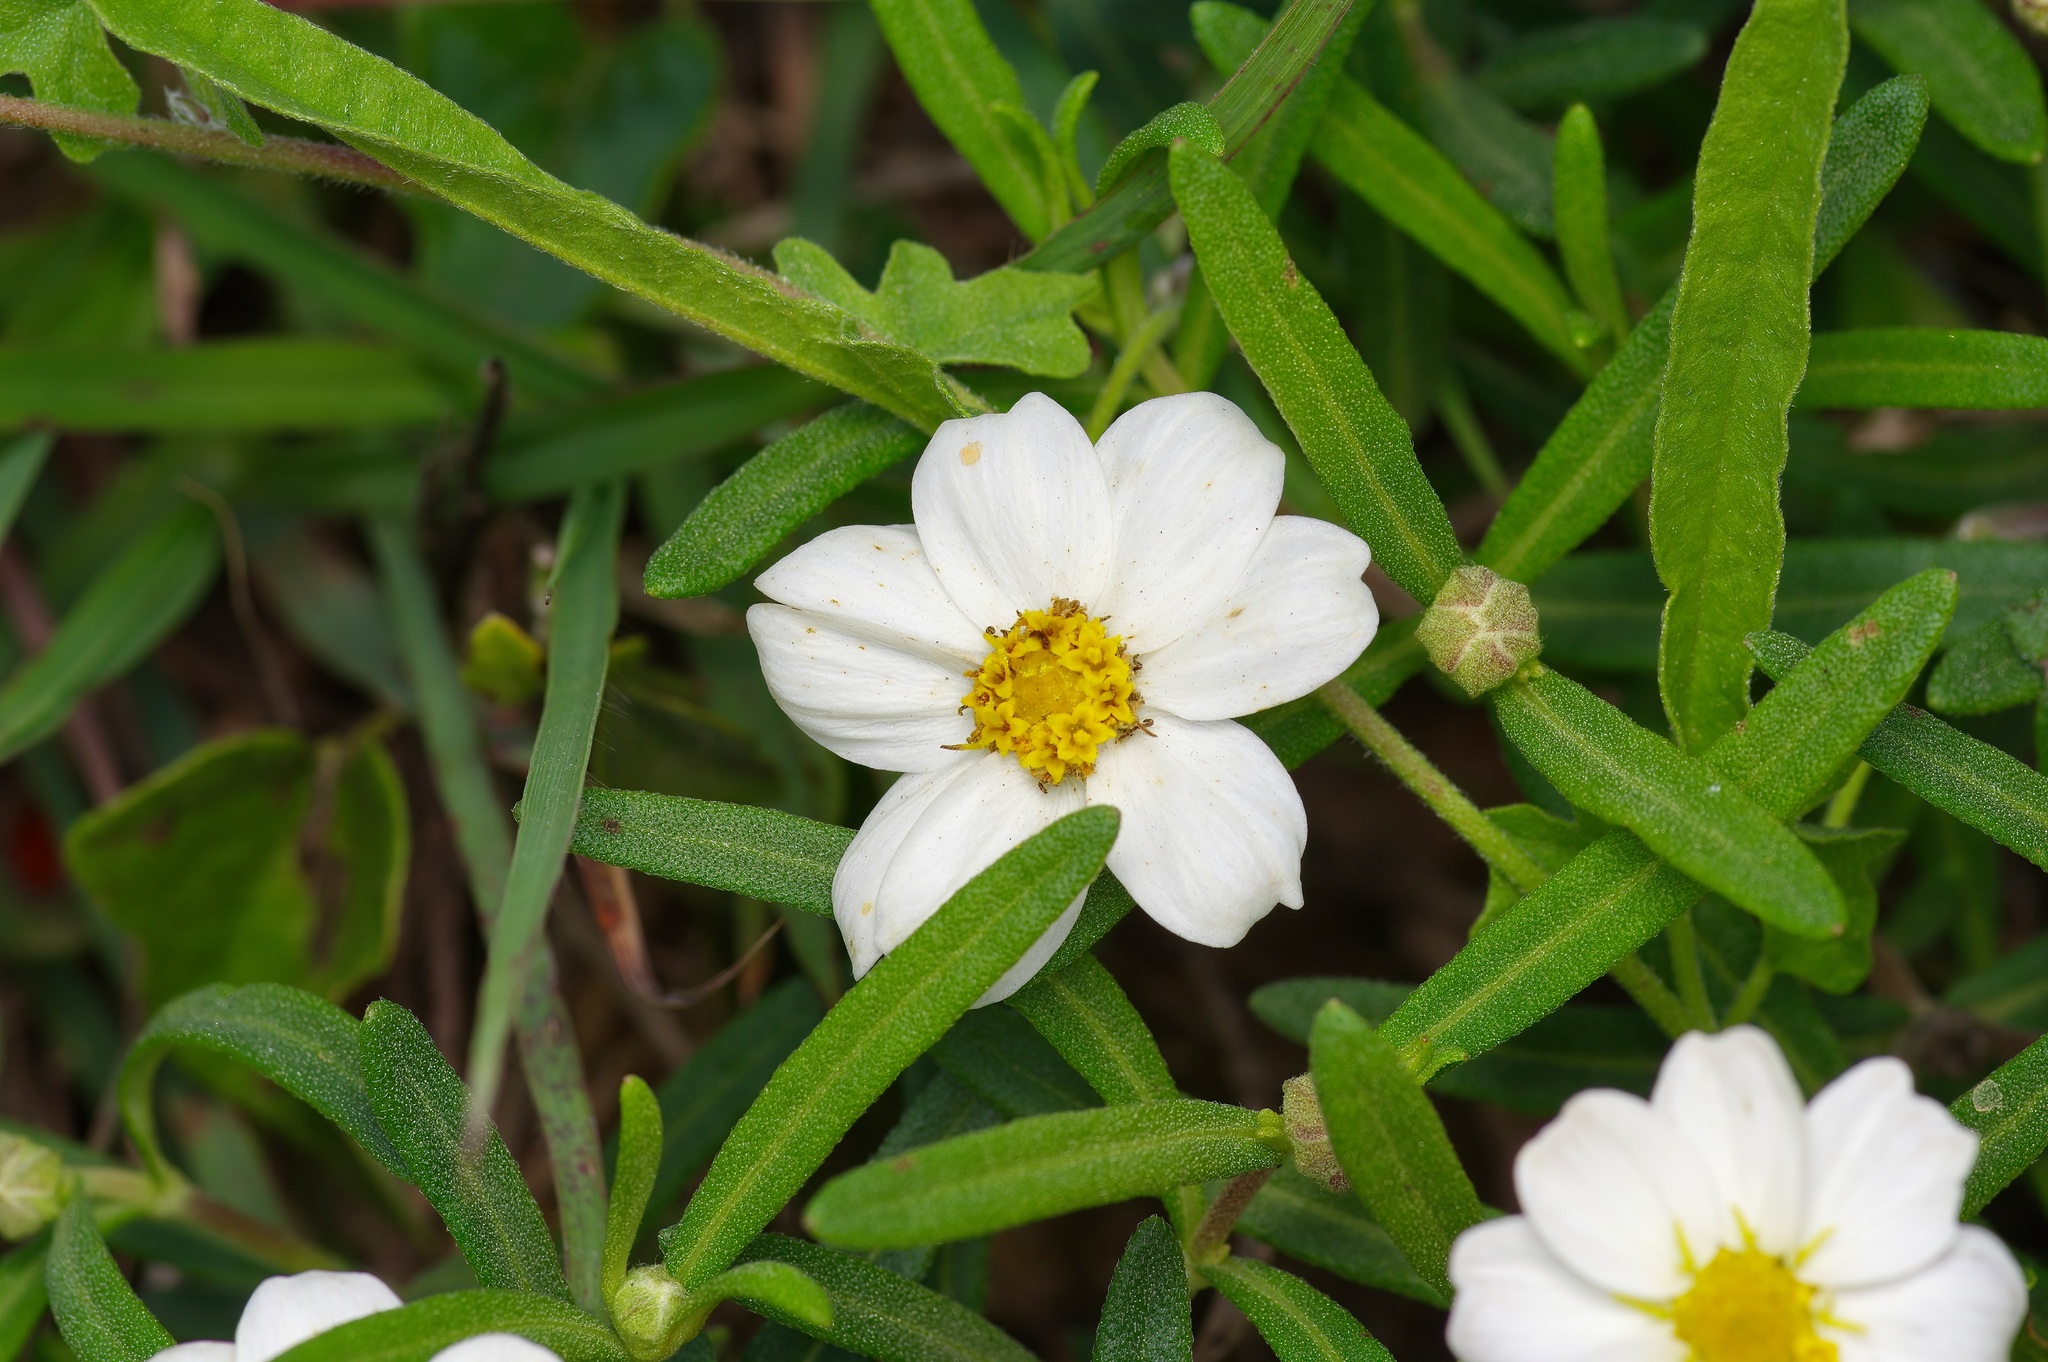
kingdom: Plantae
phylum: Tracheophyta
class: Magnoliopsida
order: Asterales
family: Asteraceae
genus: Melampodium
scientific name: Melampodium leucanthum
